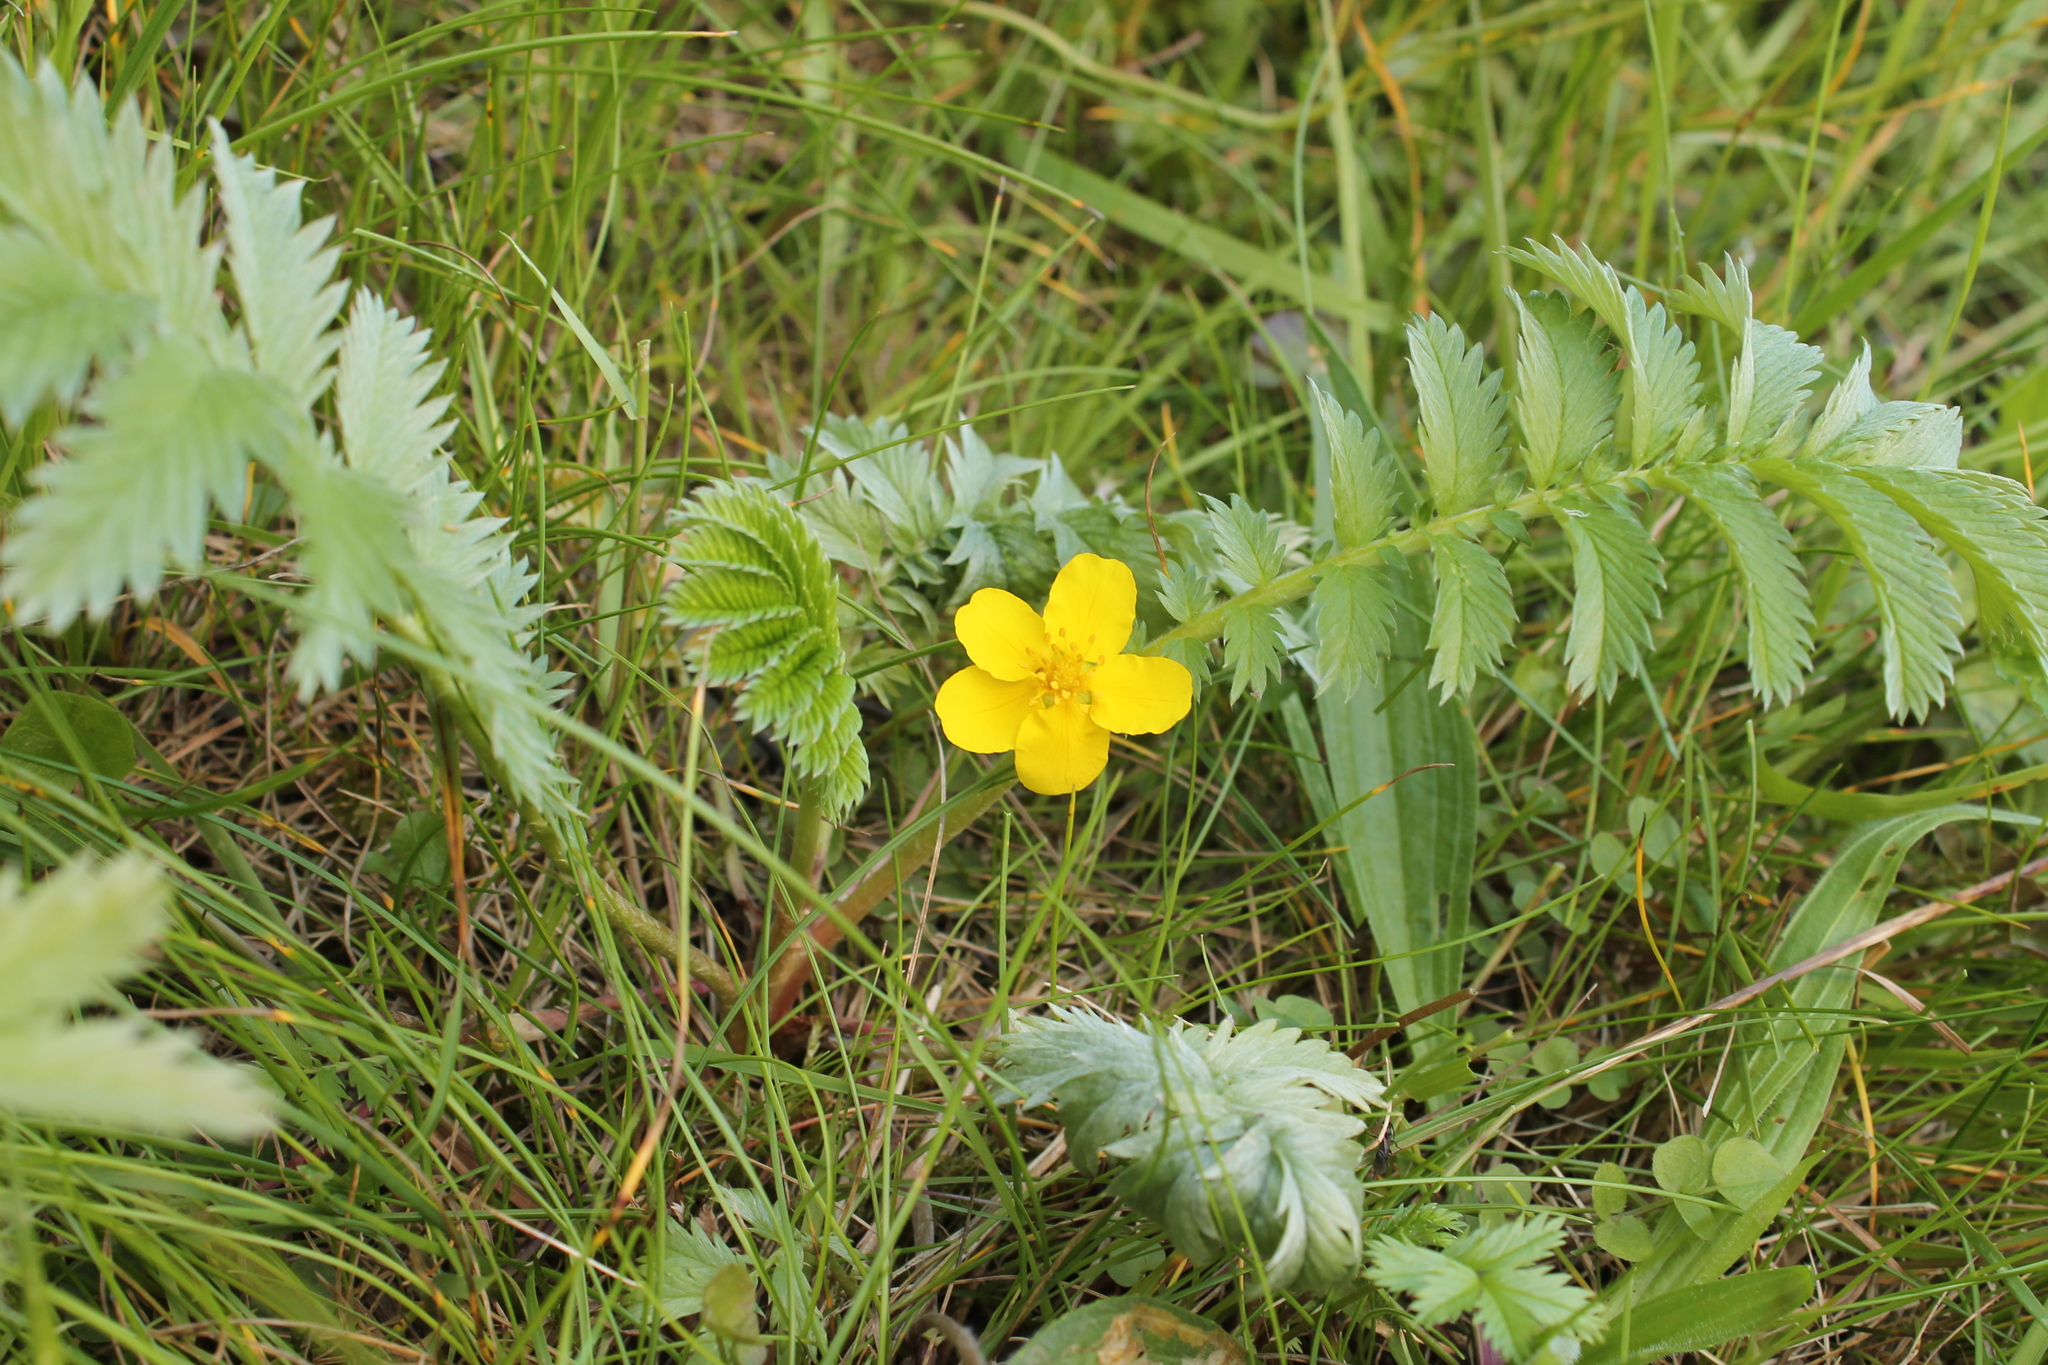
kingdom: Plantae
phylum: Tracheophyta
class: Magnoliopsida
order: Rosales
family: Rosaceae
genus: Argentina
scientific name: Argentina anserina
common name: Common silverweed
